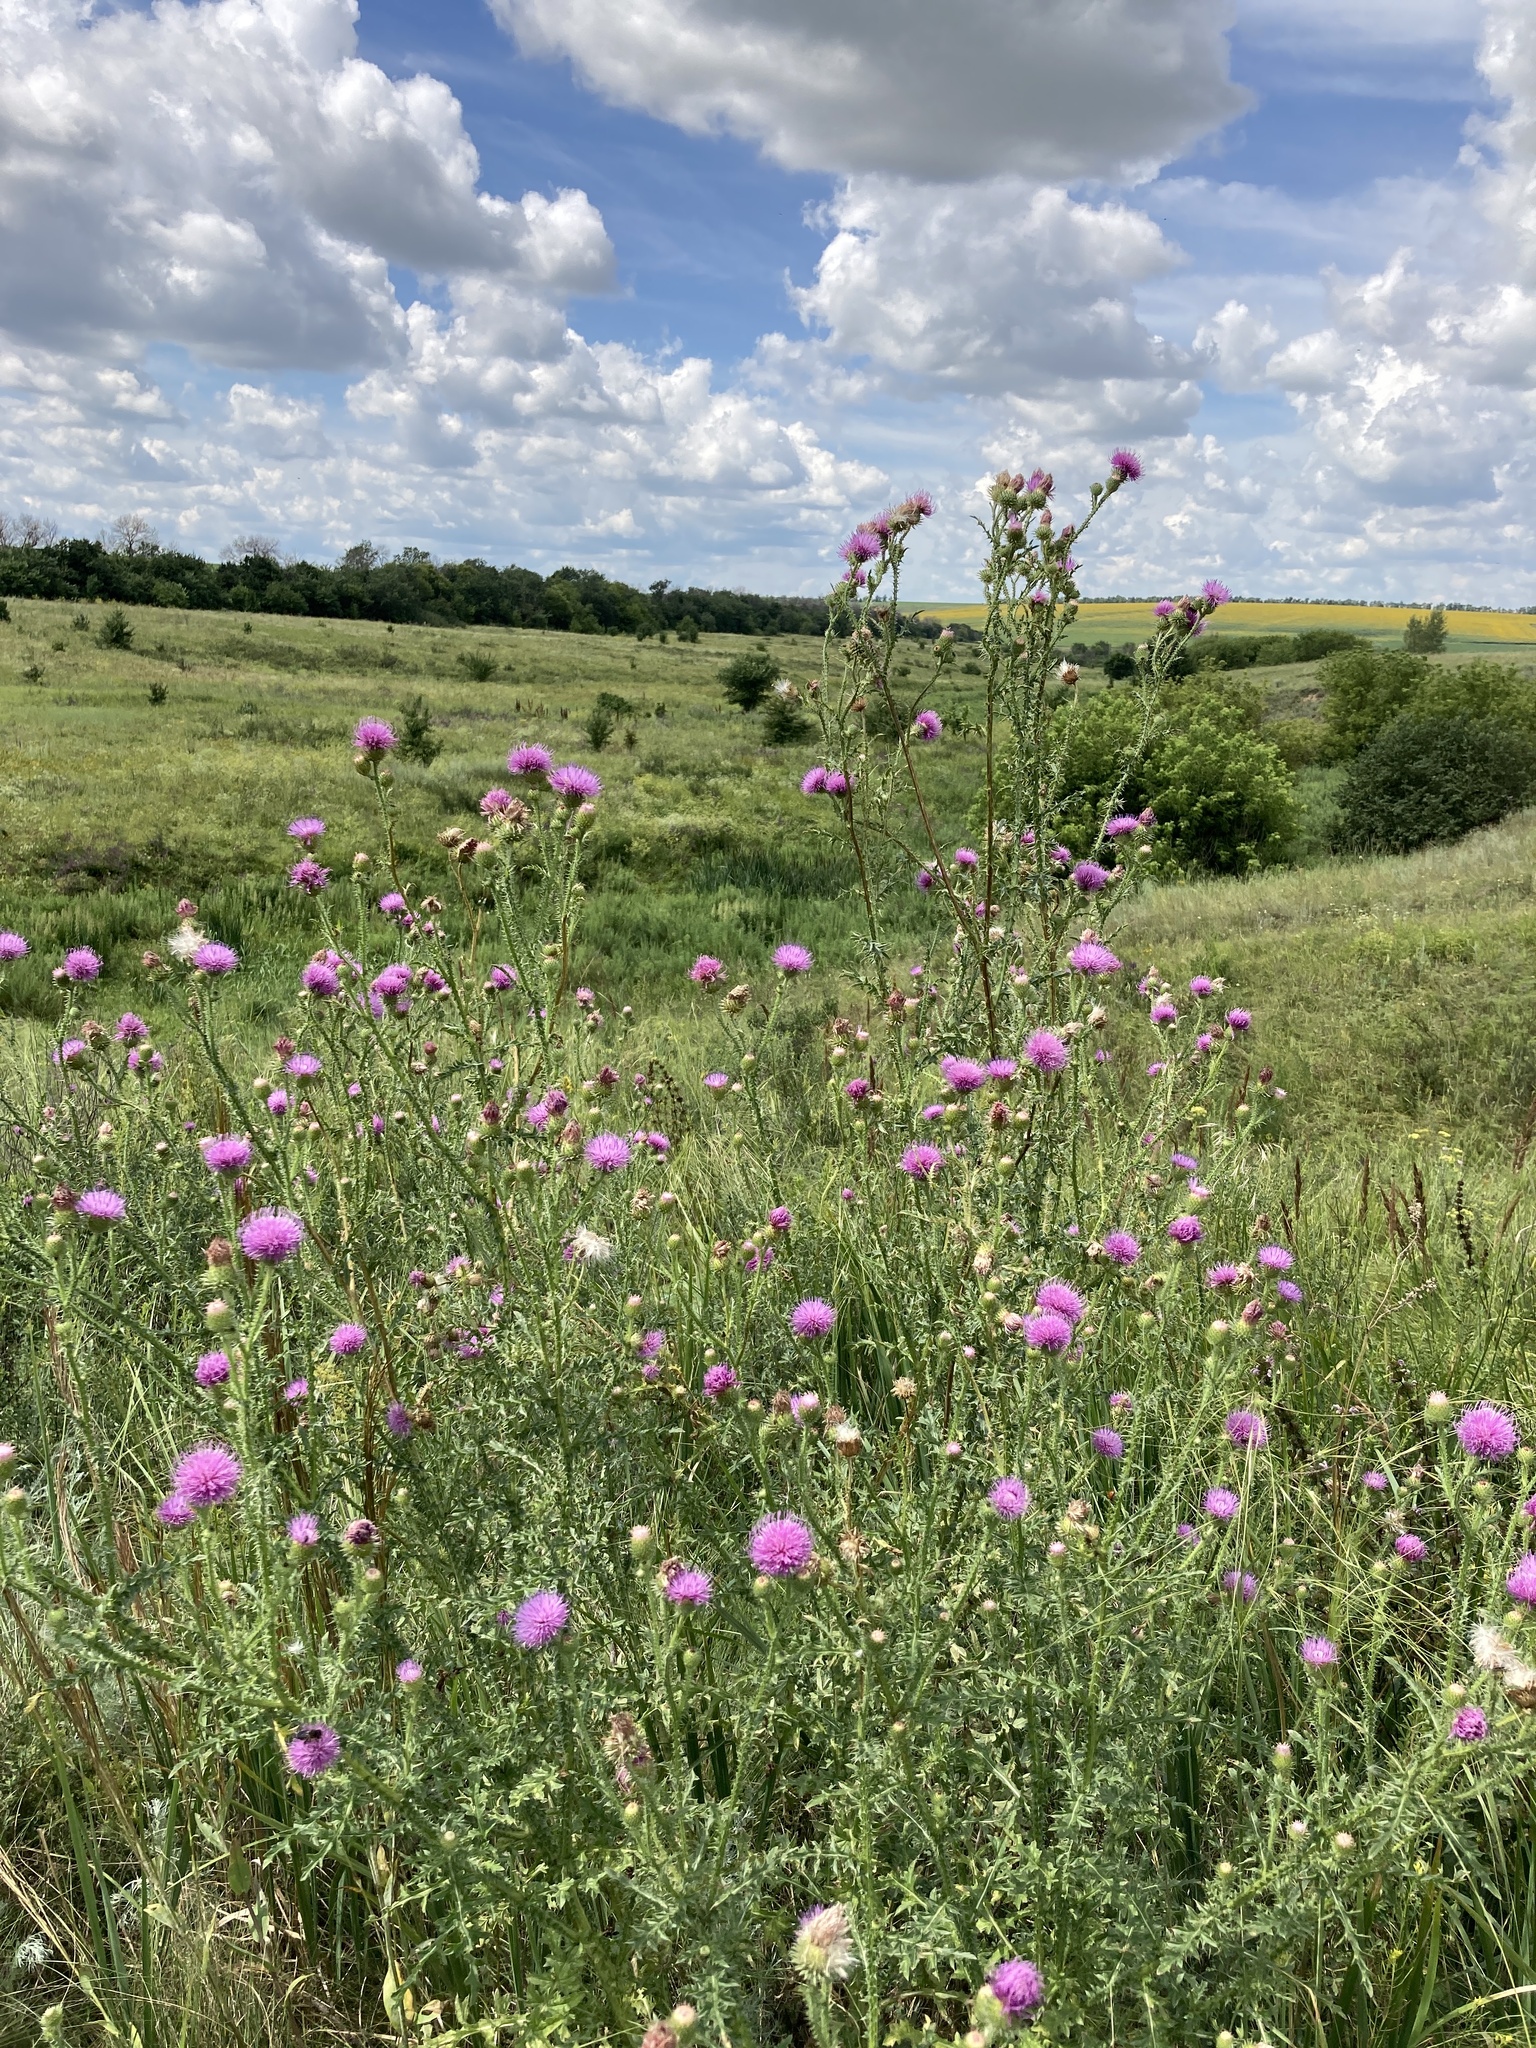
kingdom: Plantae
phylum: Tracheophyta
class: Magnoliopsida
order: Asterales
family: Asteraceae
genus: Carduus
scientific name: Carduus acanthoides
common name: Plumeless thistle
